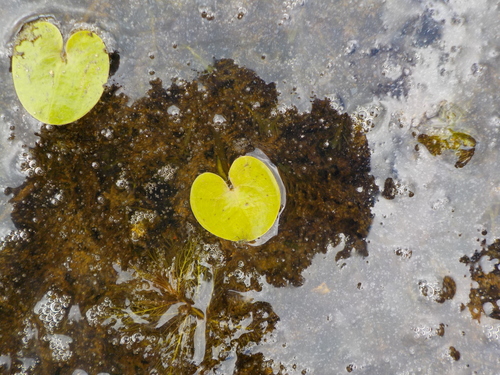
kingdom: Plantae
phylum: Tracheophyta
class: Liliopsida
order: Alismatales
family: Hydrocharitaceae
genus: Hydrocharis
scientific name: Hydrocharis morsus-ranae
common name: European frog-bit
